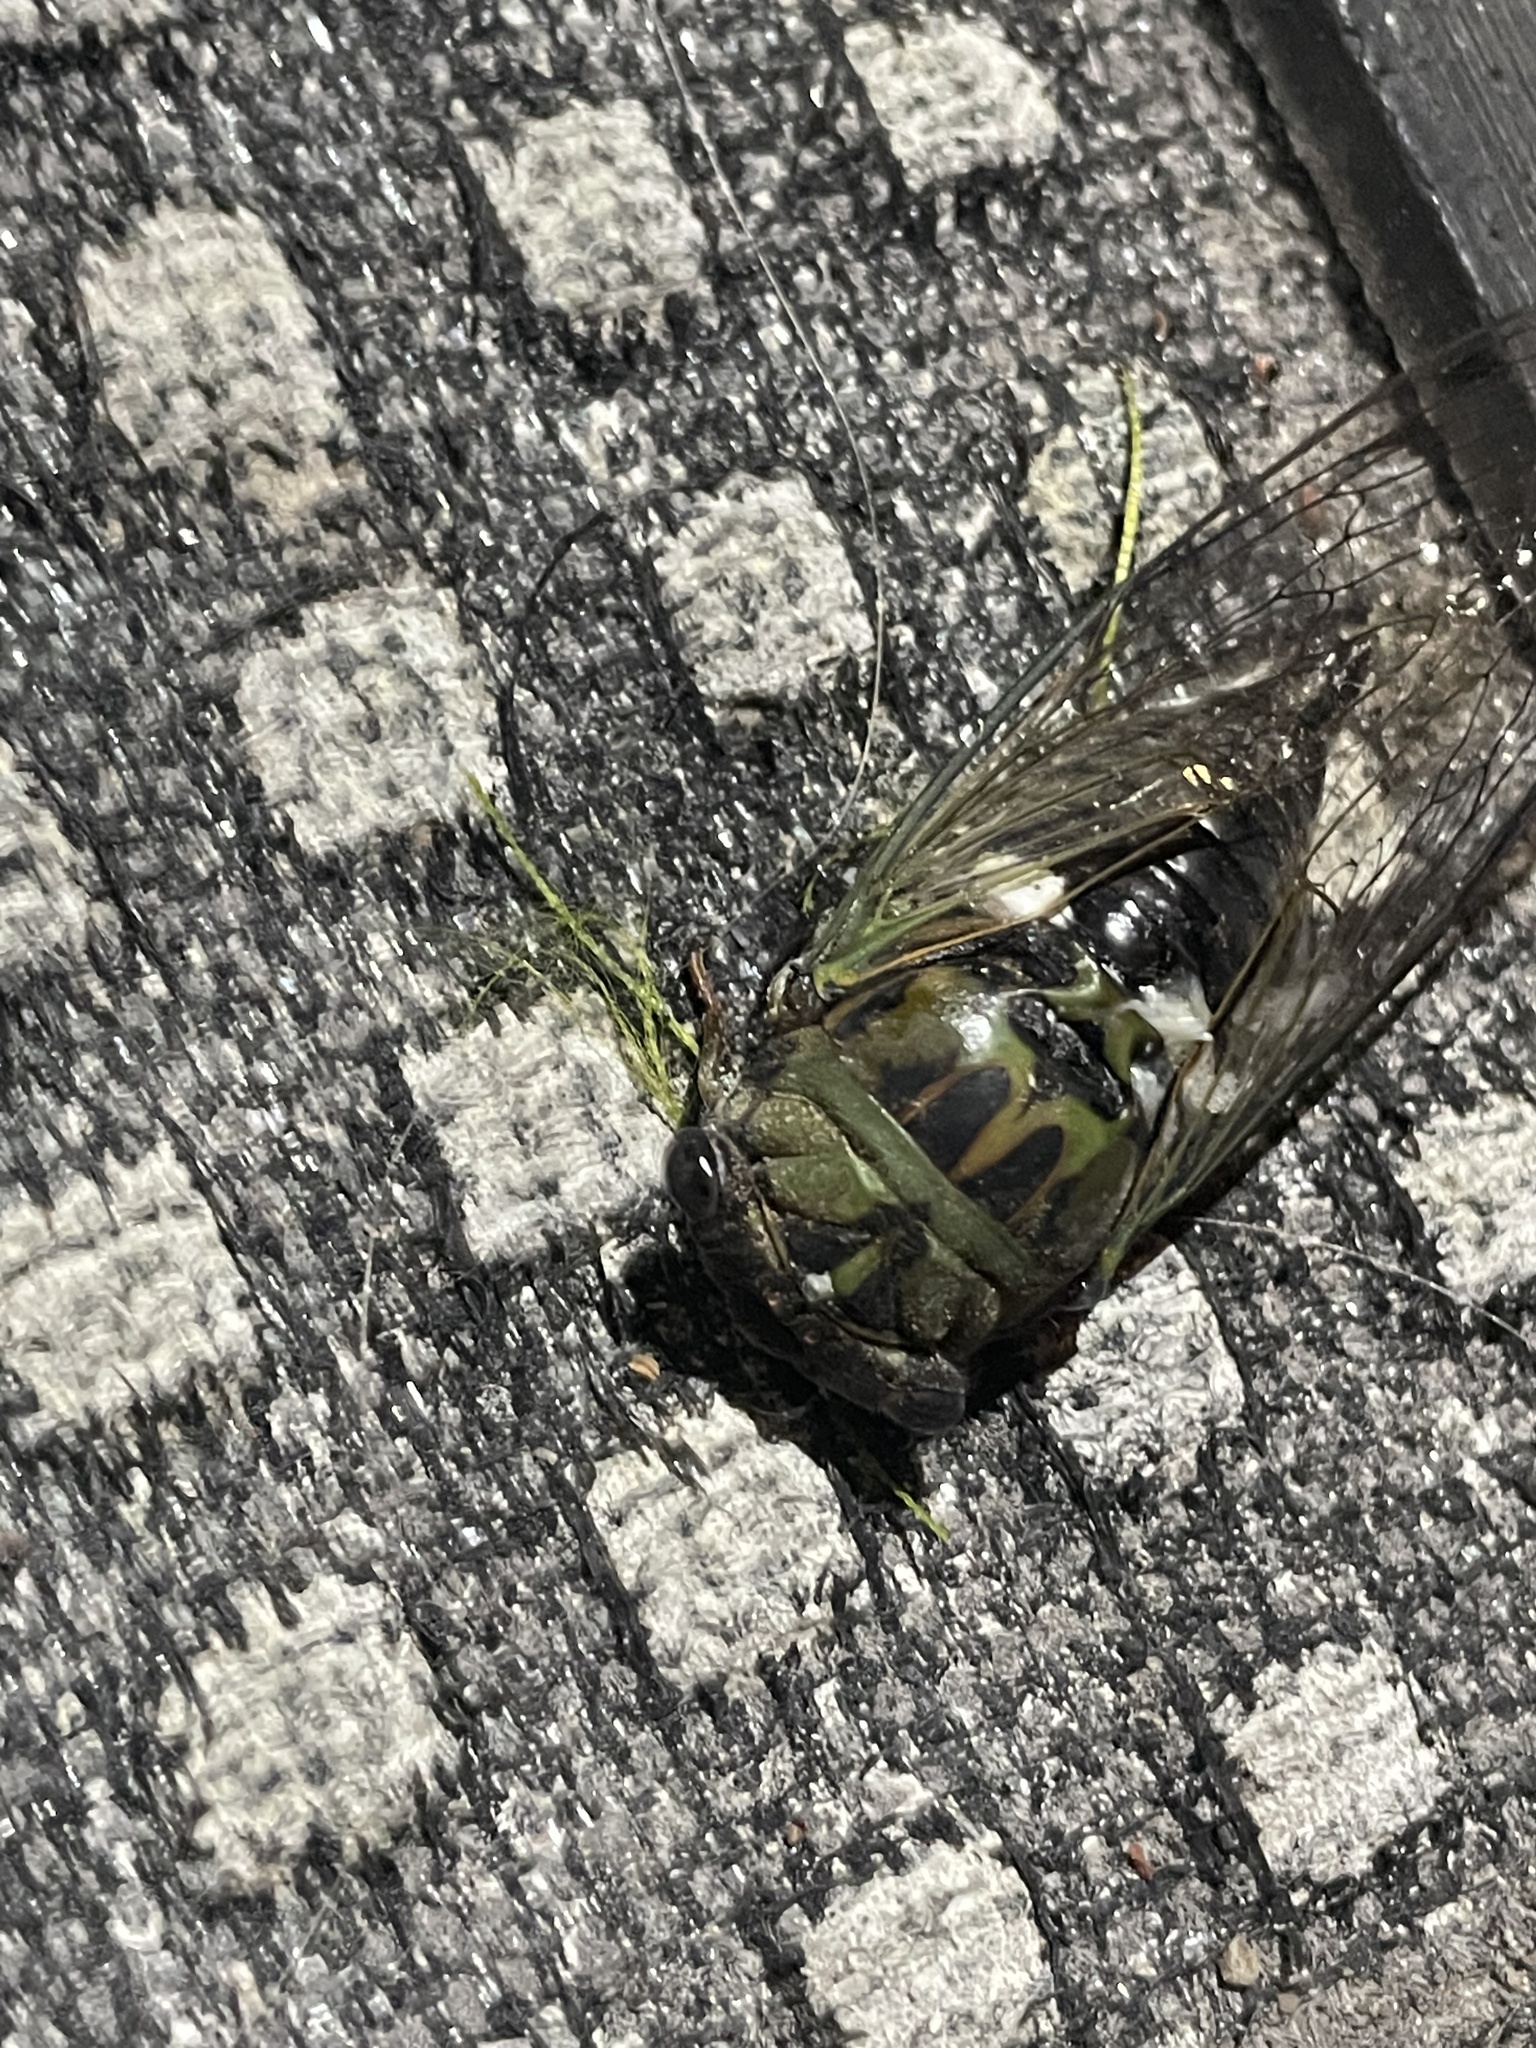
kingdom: Animalia
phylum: Arthropoda
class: Insecta
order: Hemiptera
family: Cicadidae
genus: Neotibicen
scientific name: Neotibicen pruinosus
